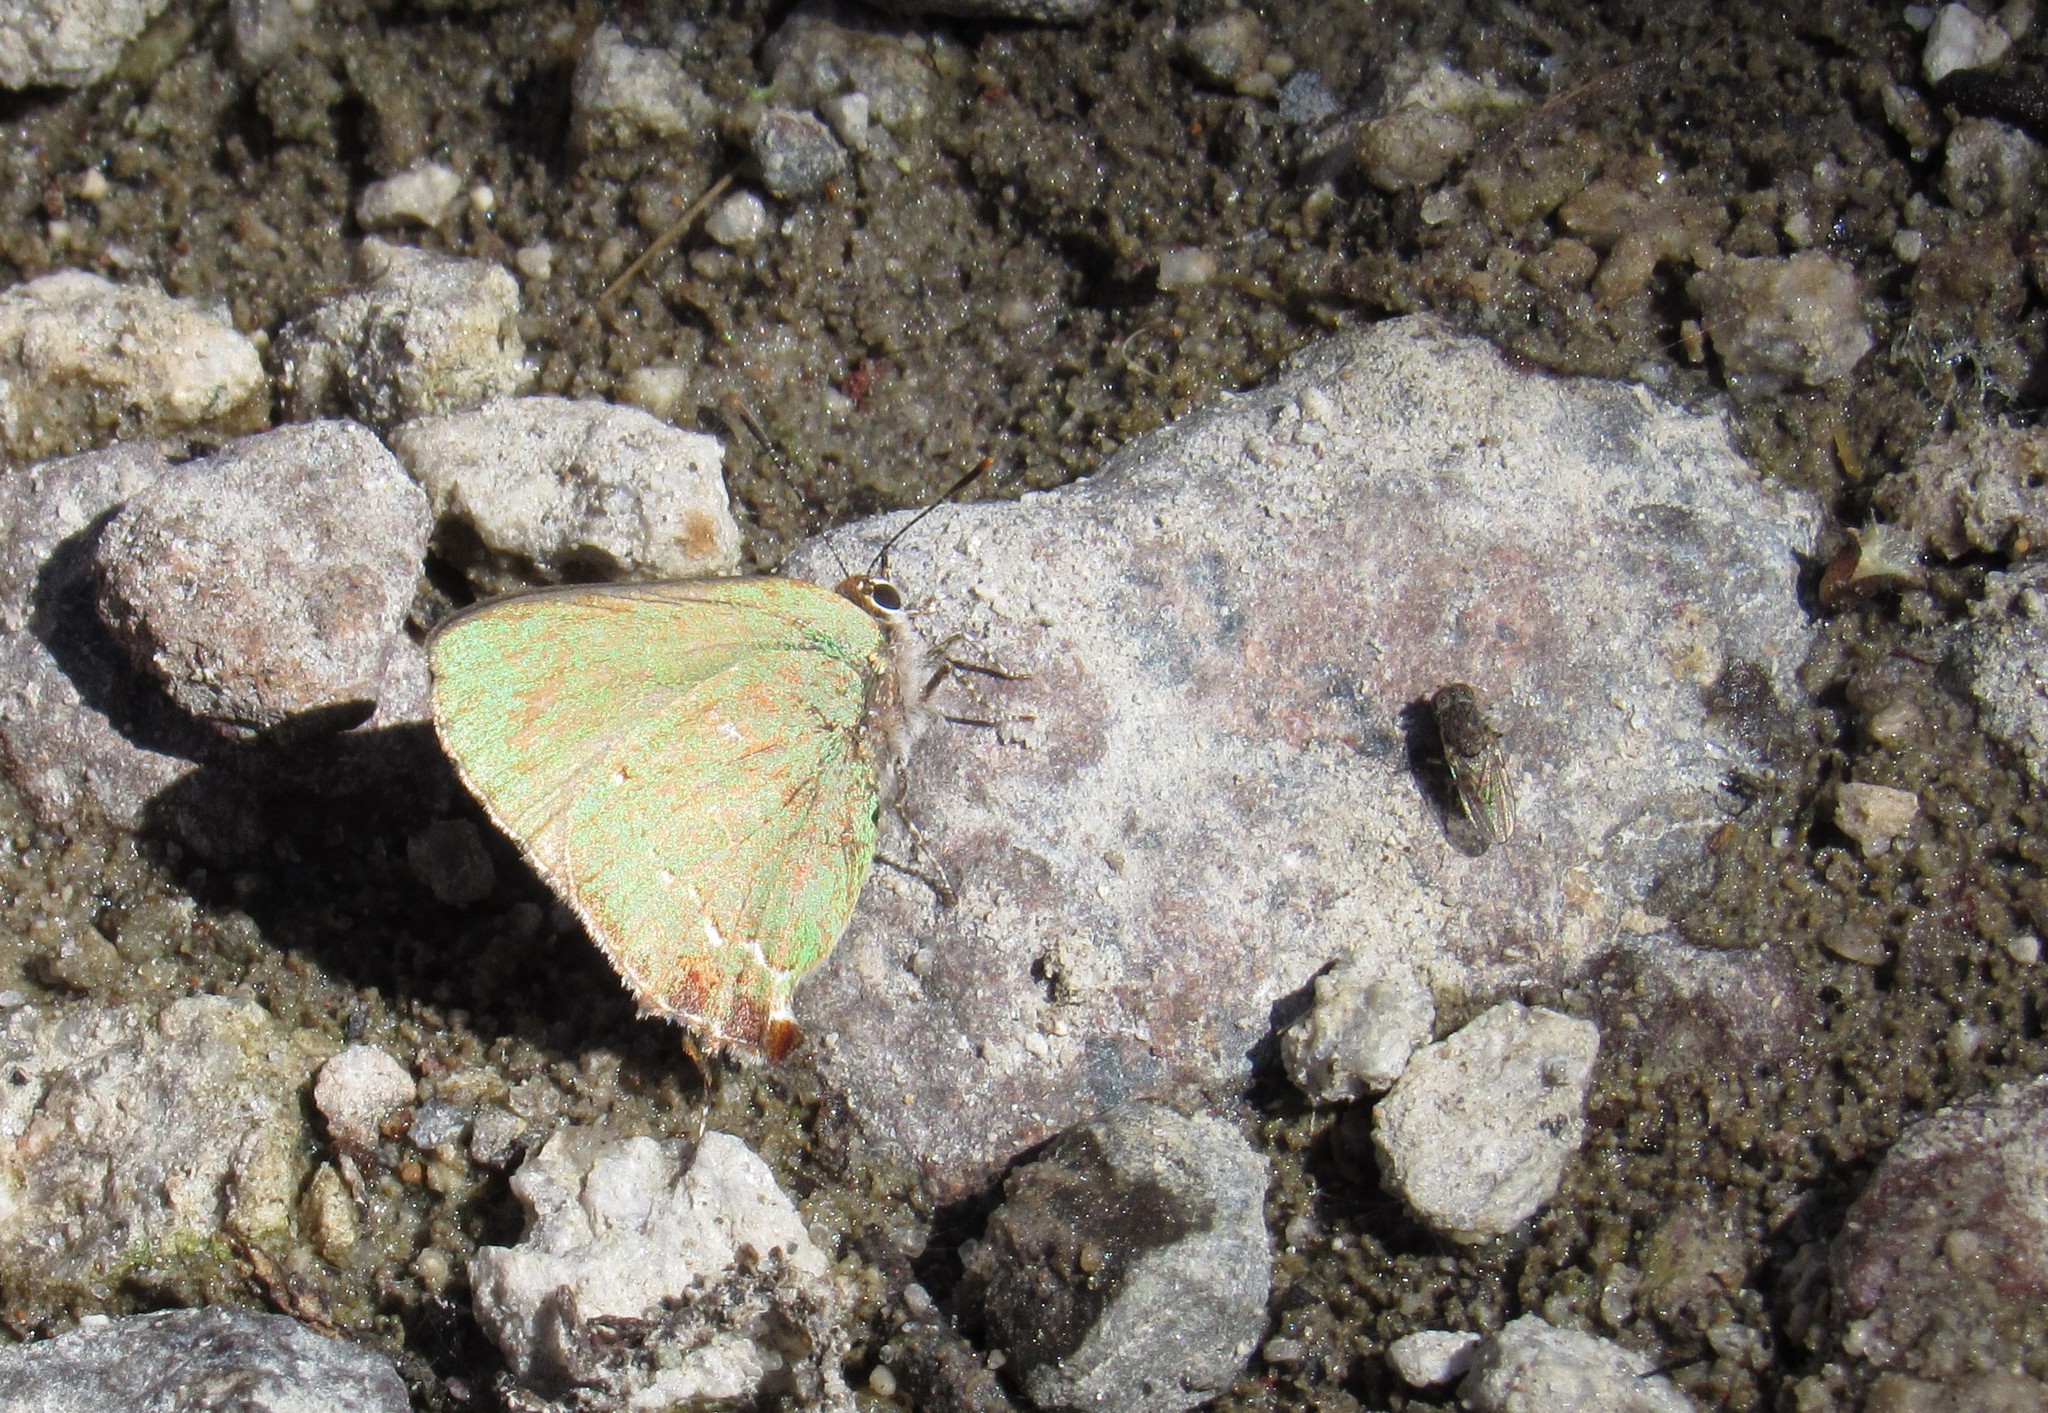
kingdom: Animalia
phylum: Arthropoda
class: Insecta
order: Lepidoptera
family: Lycaenidae
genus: Cyanophrys
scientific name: Cyanophrys miserabilis
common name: Clench's greenstreak
